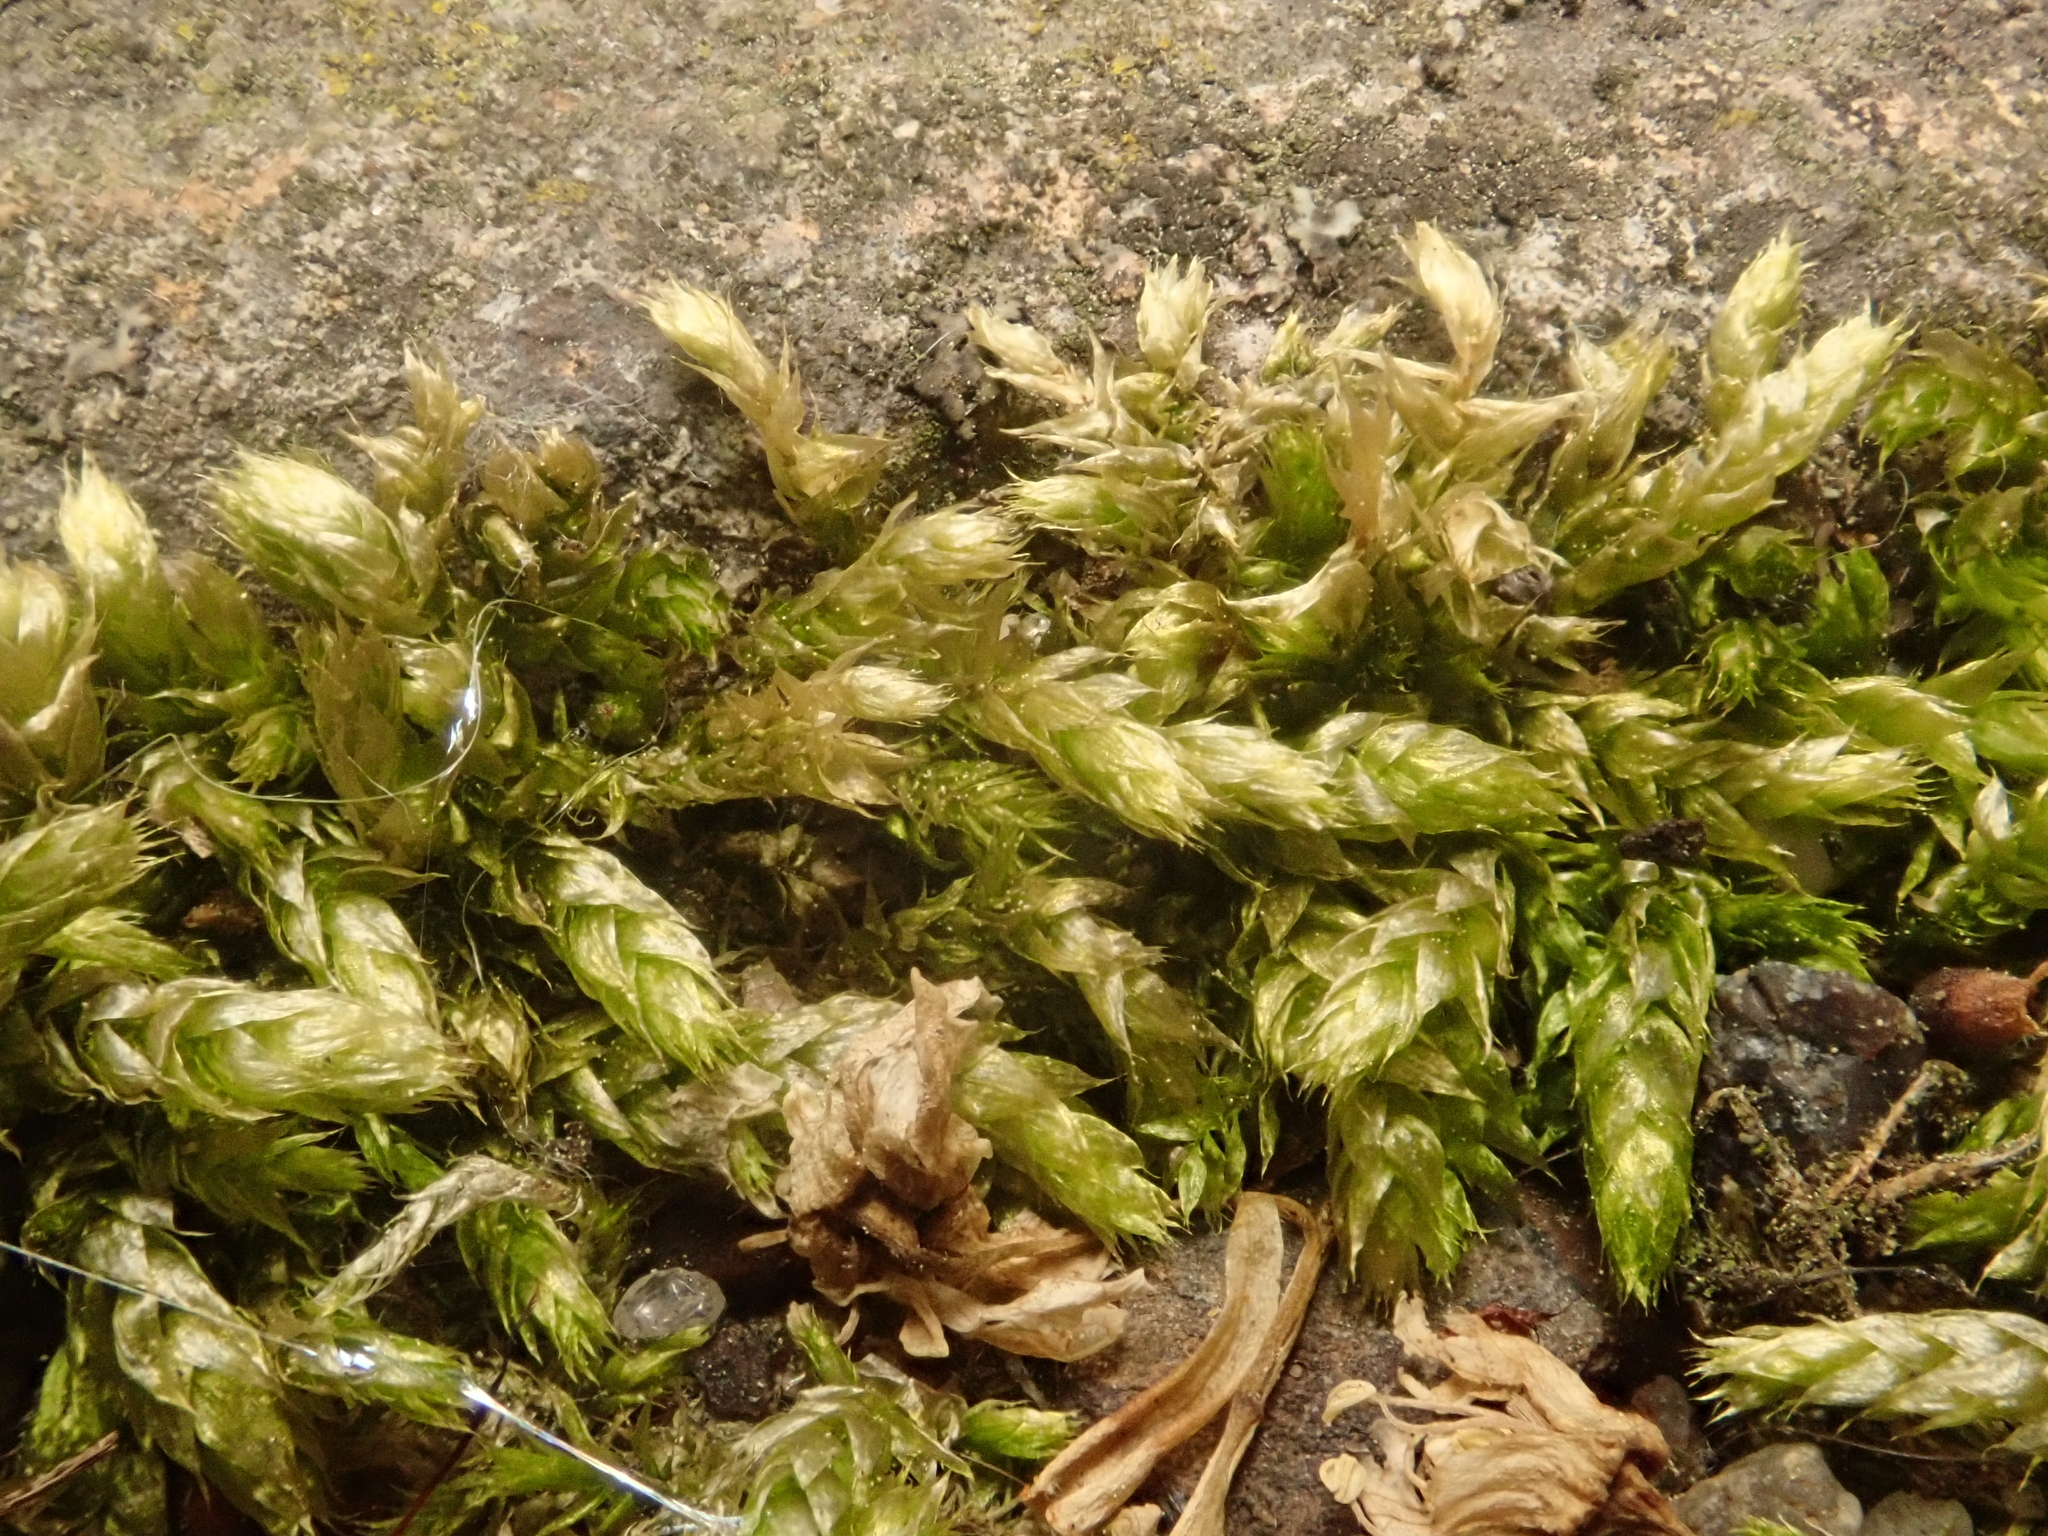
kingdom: Plantae
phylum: Bryophyta
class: Bryopsida
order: Hypnales
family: Brachytheciaceae
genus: Brachythecium
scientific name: Brachythecium rutabulum
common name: Rough-stalked feather-moss
